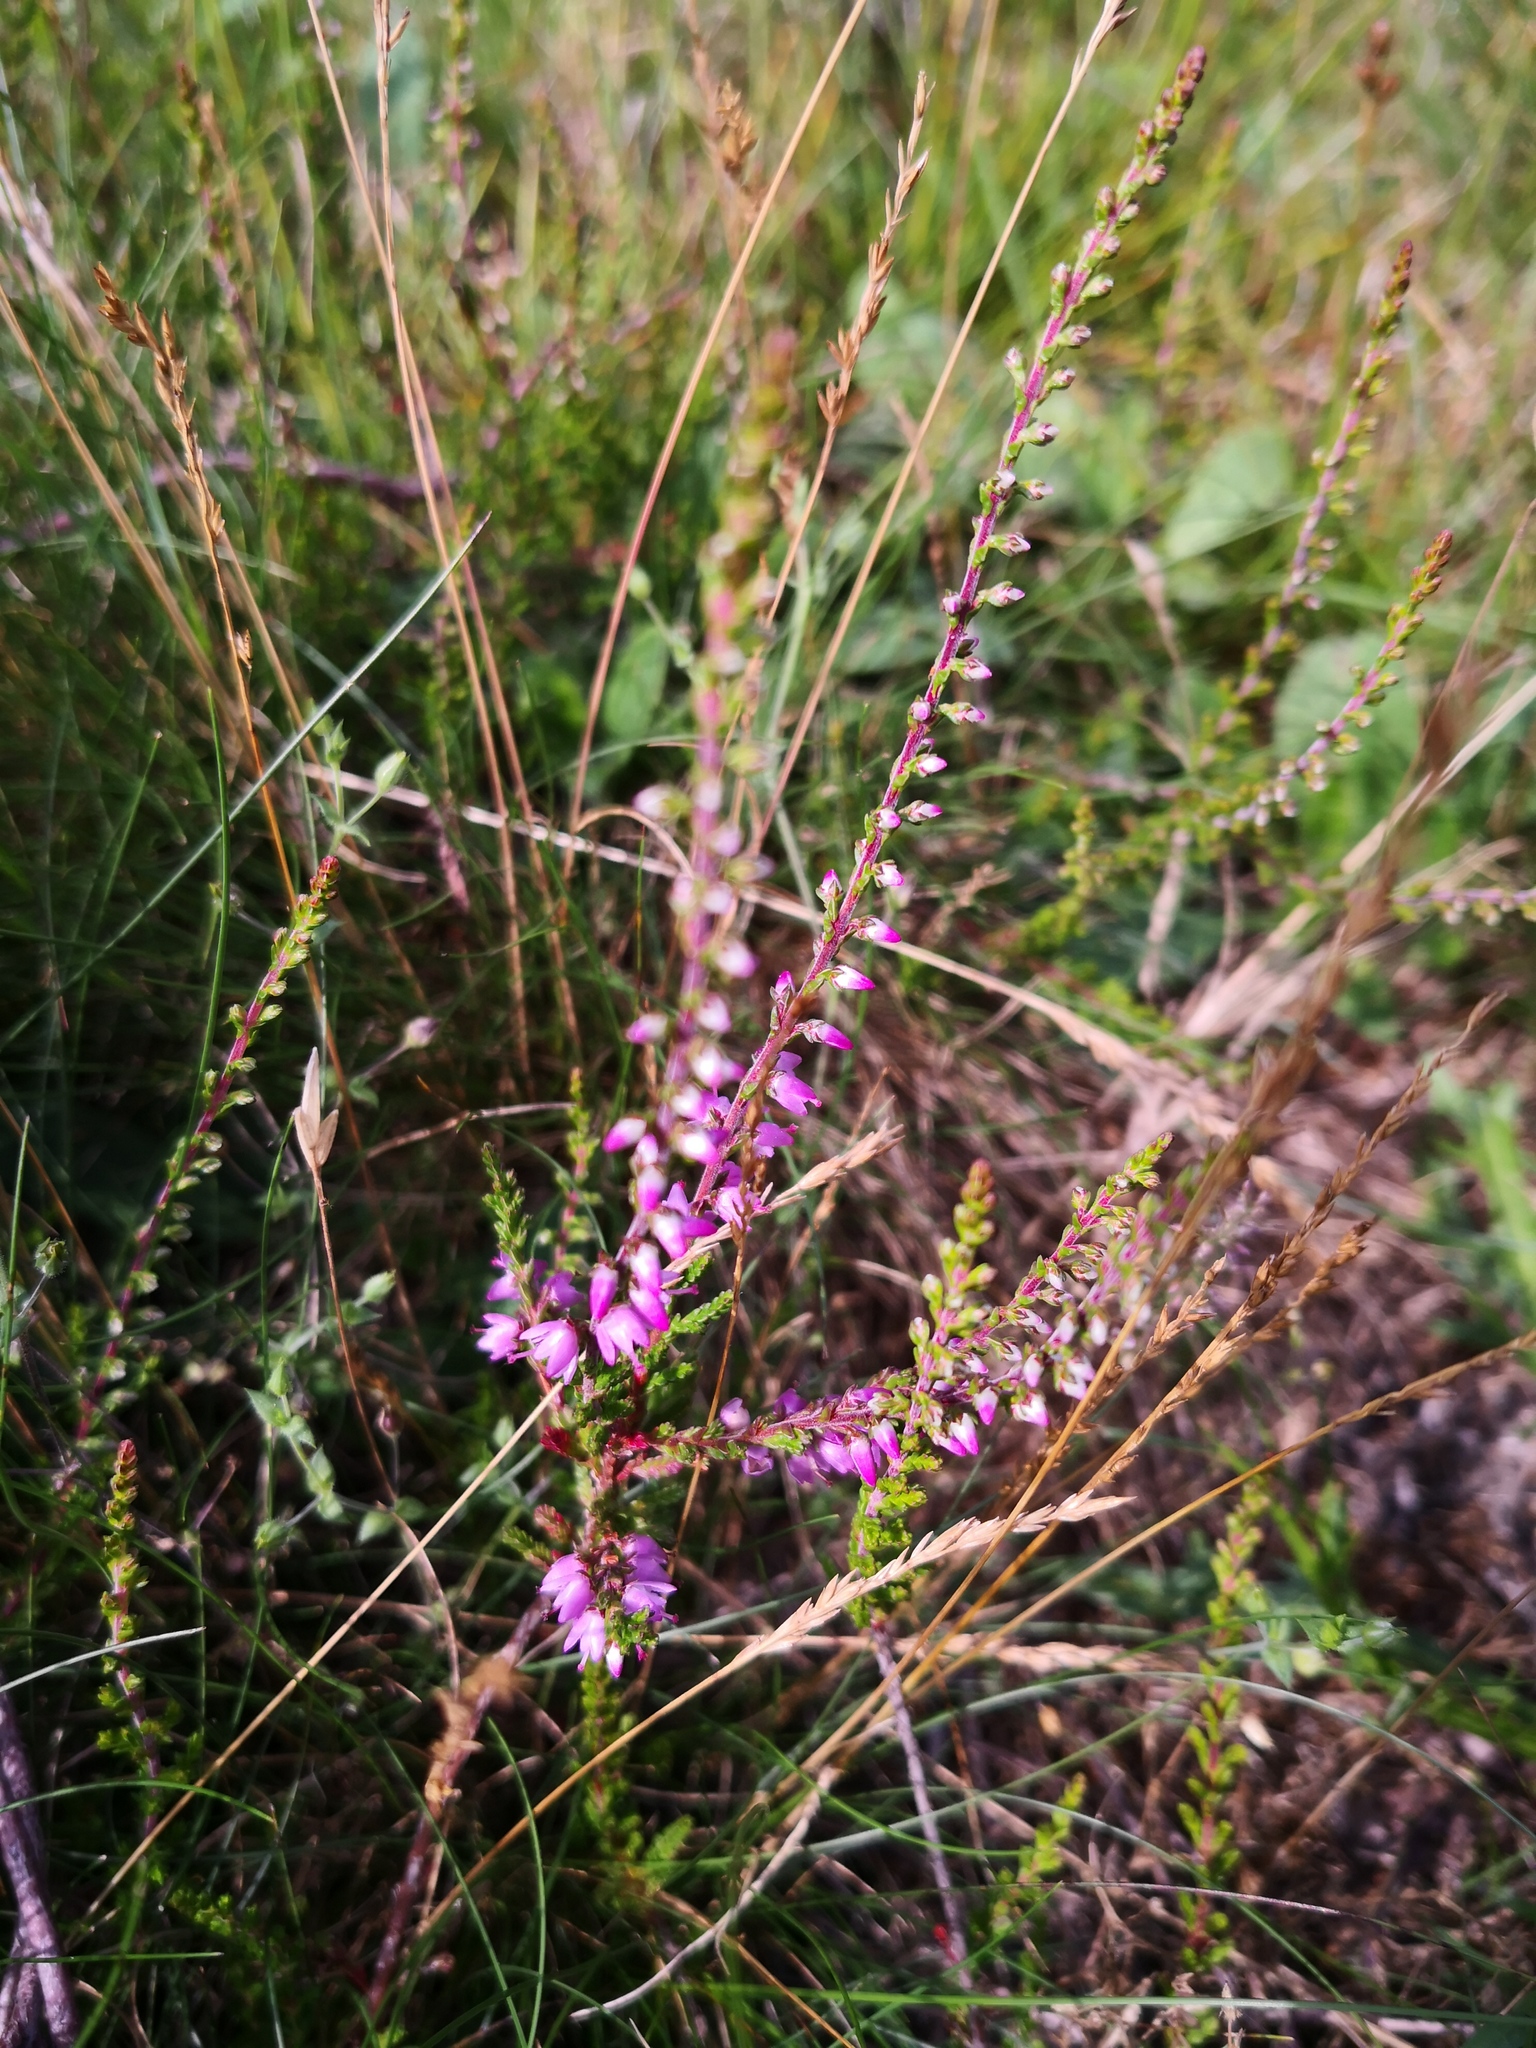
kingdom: Plantae
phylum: Tracheophyta
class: Magnoliopsida
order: Ericales
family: Ericaceae
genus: Calluna
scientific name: Calluna vulgaris
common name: Heather
